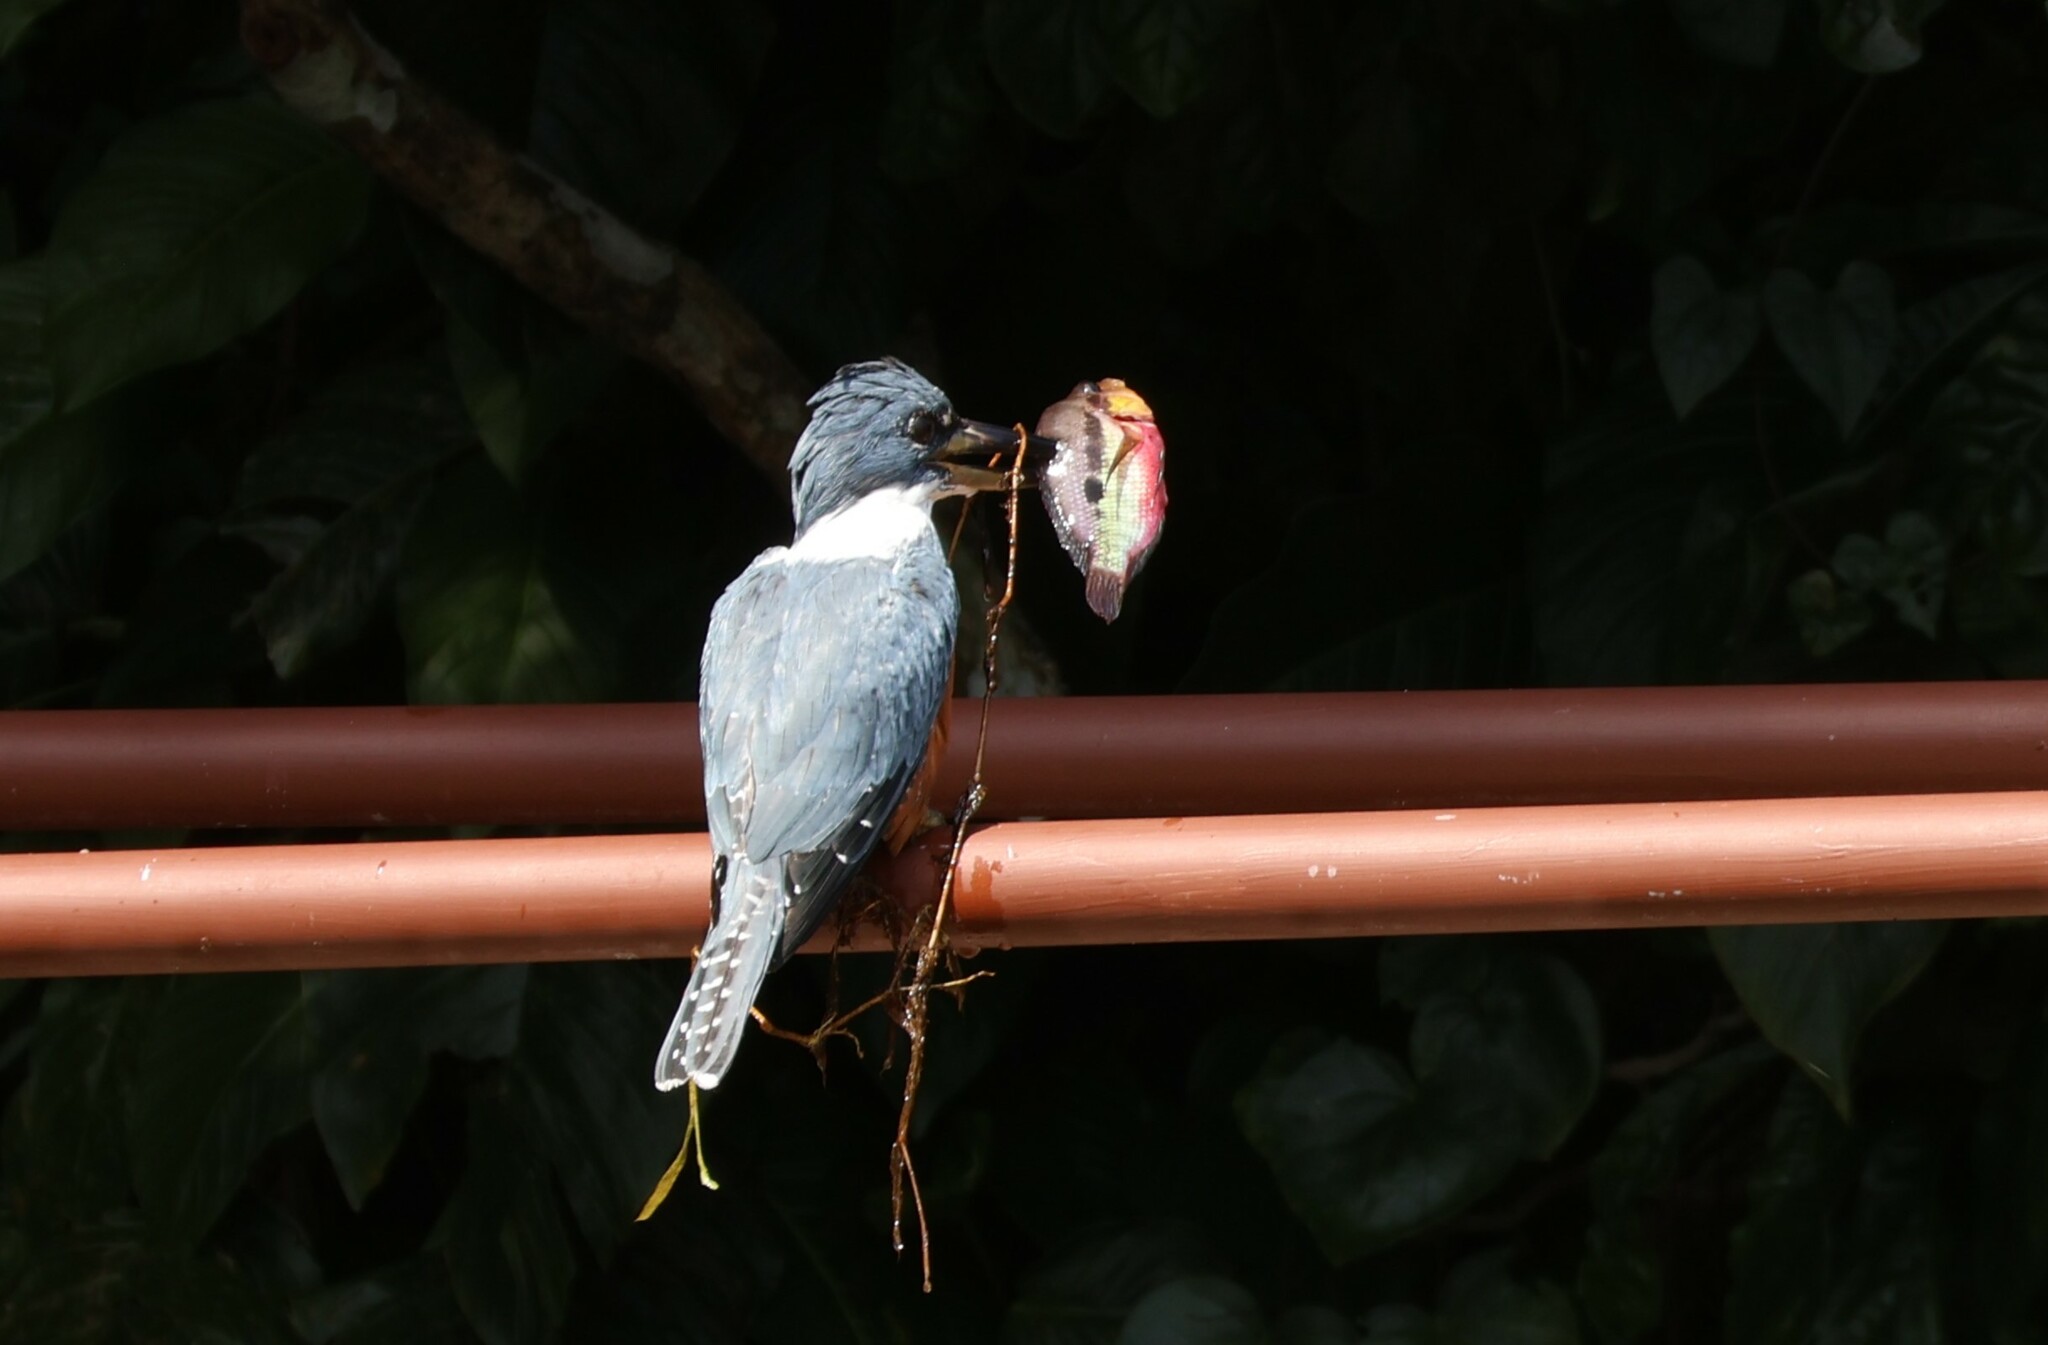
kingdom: Animalia
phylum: Chordata
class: Aves
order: Coraciiformes
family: Alcedinidae
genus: Megaceryle
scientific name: Megaceryle torquata
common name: Ringed kingfisher
